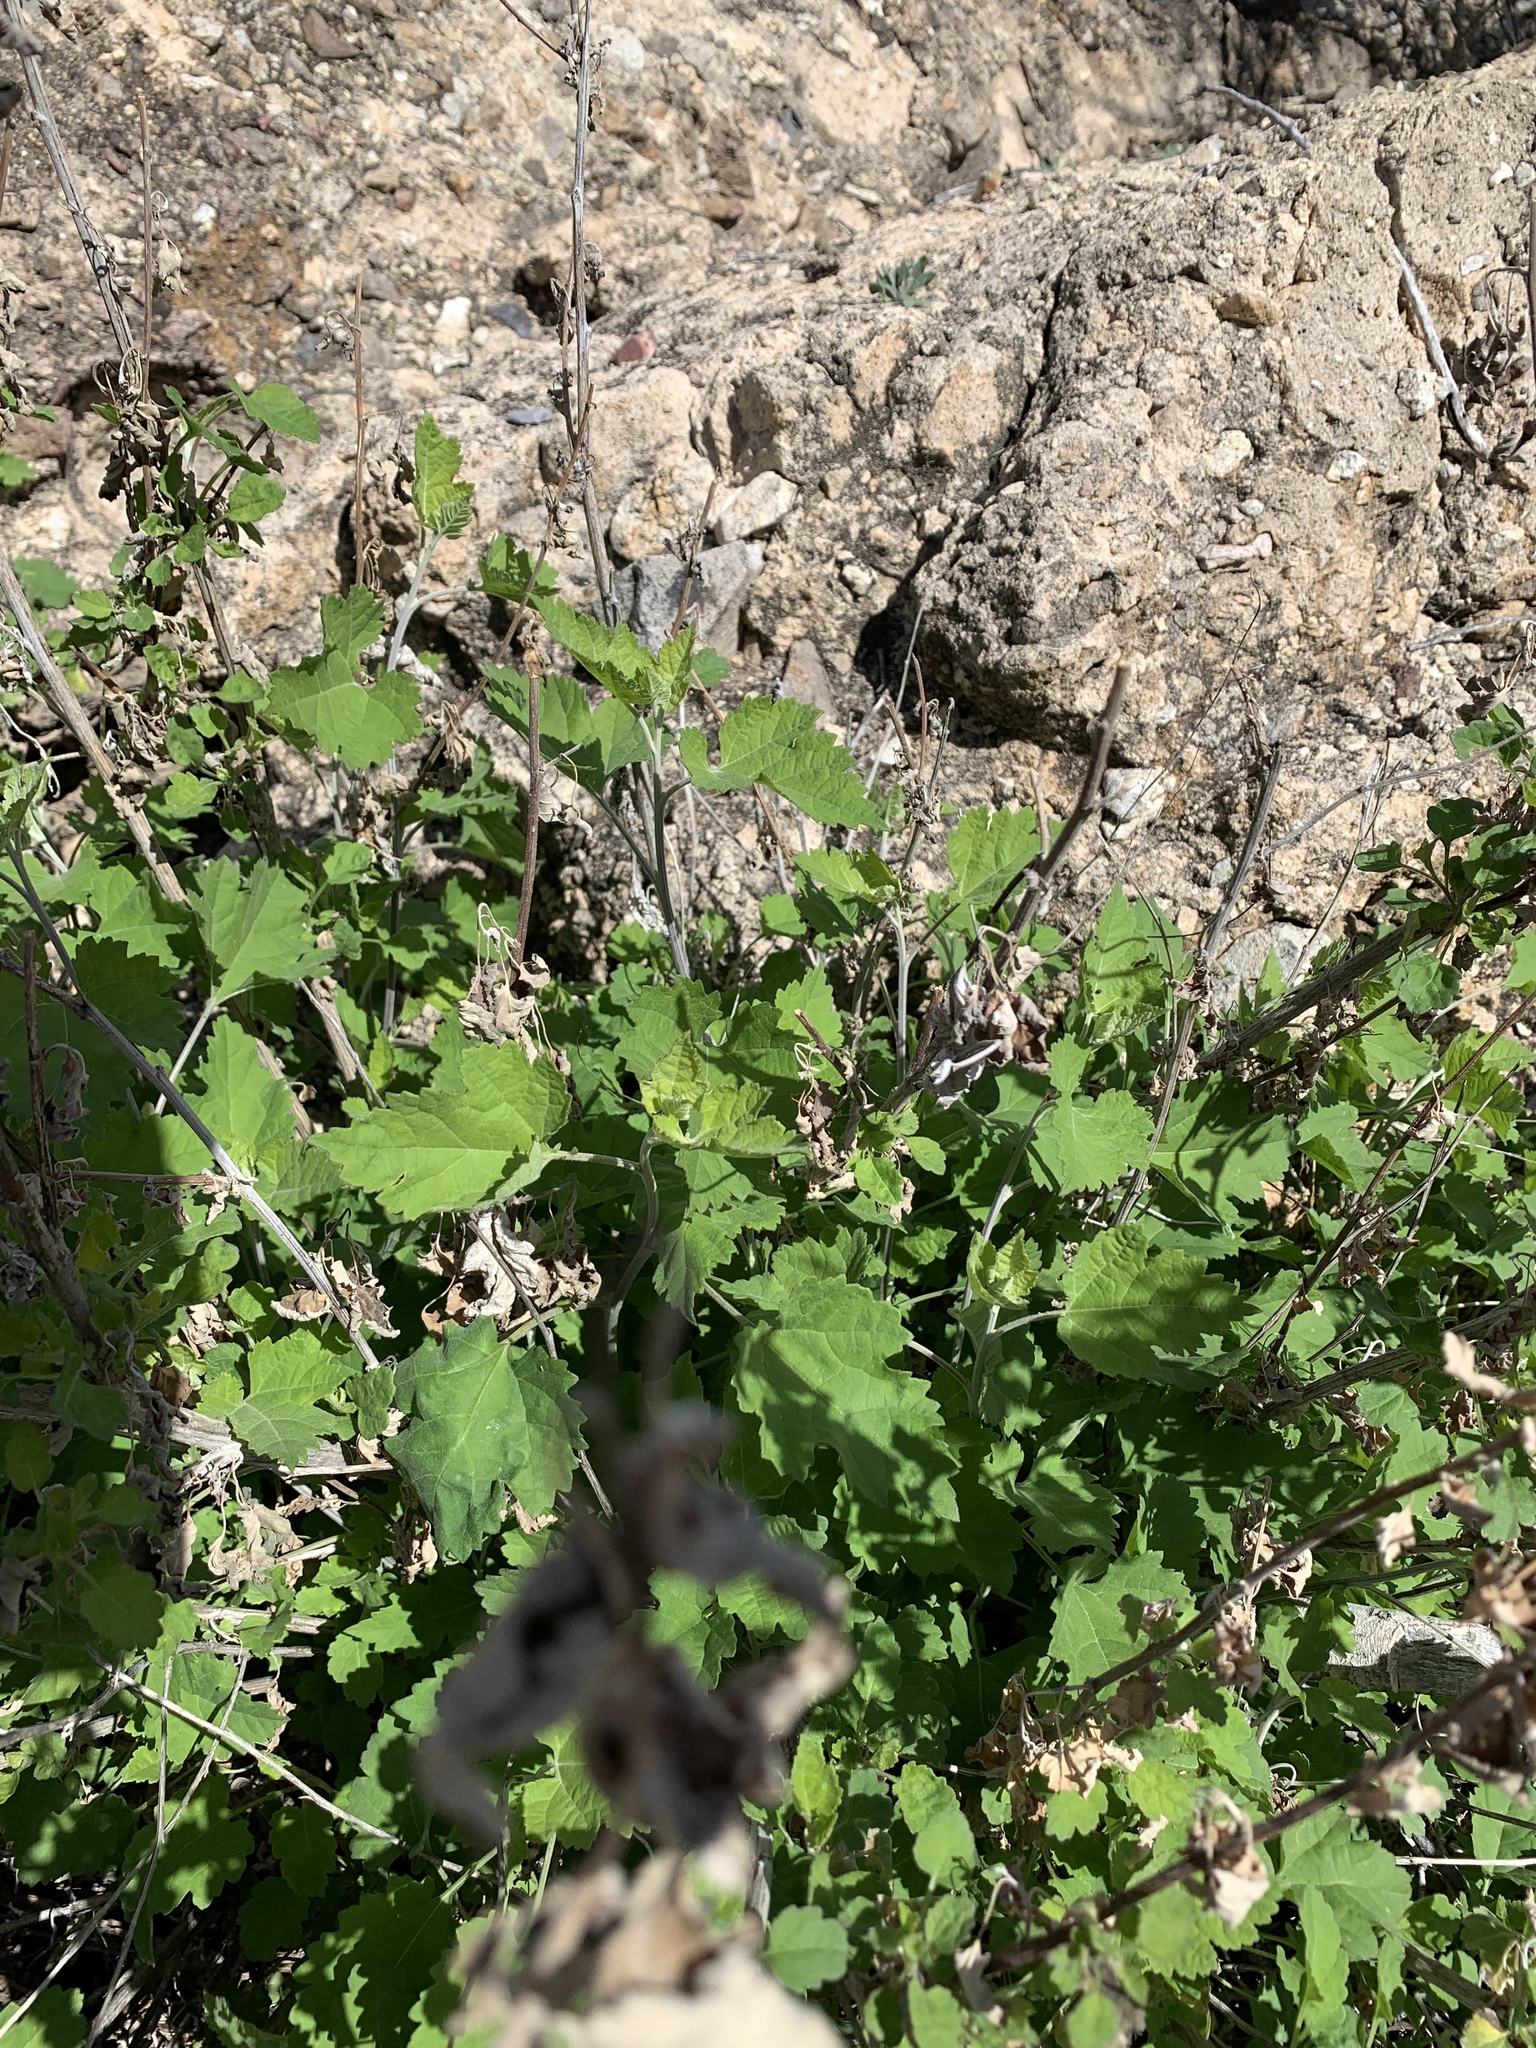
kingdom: Plantae
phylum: Tracheophyta
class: Magnoliopsida
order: Asterales
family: Asteraceae
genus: Ambrosia
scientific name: Ambrosia cordifolia
